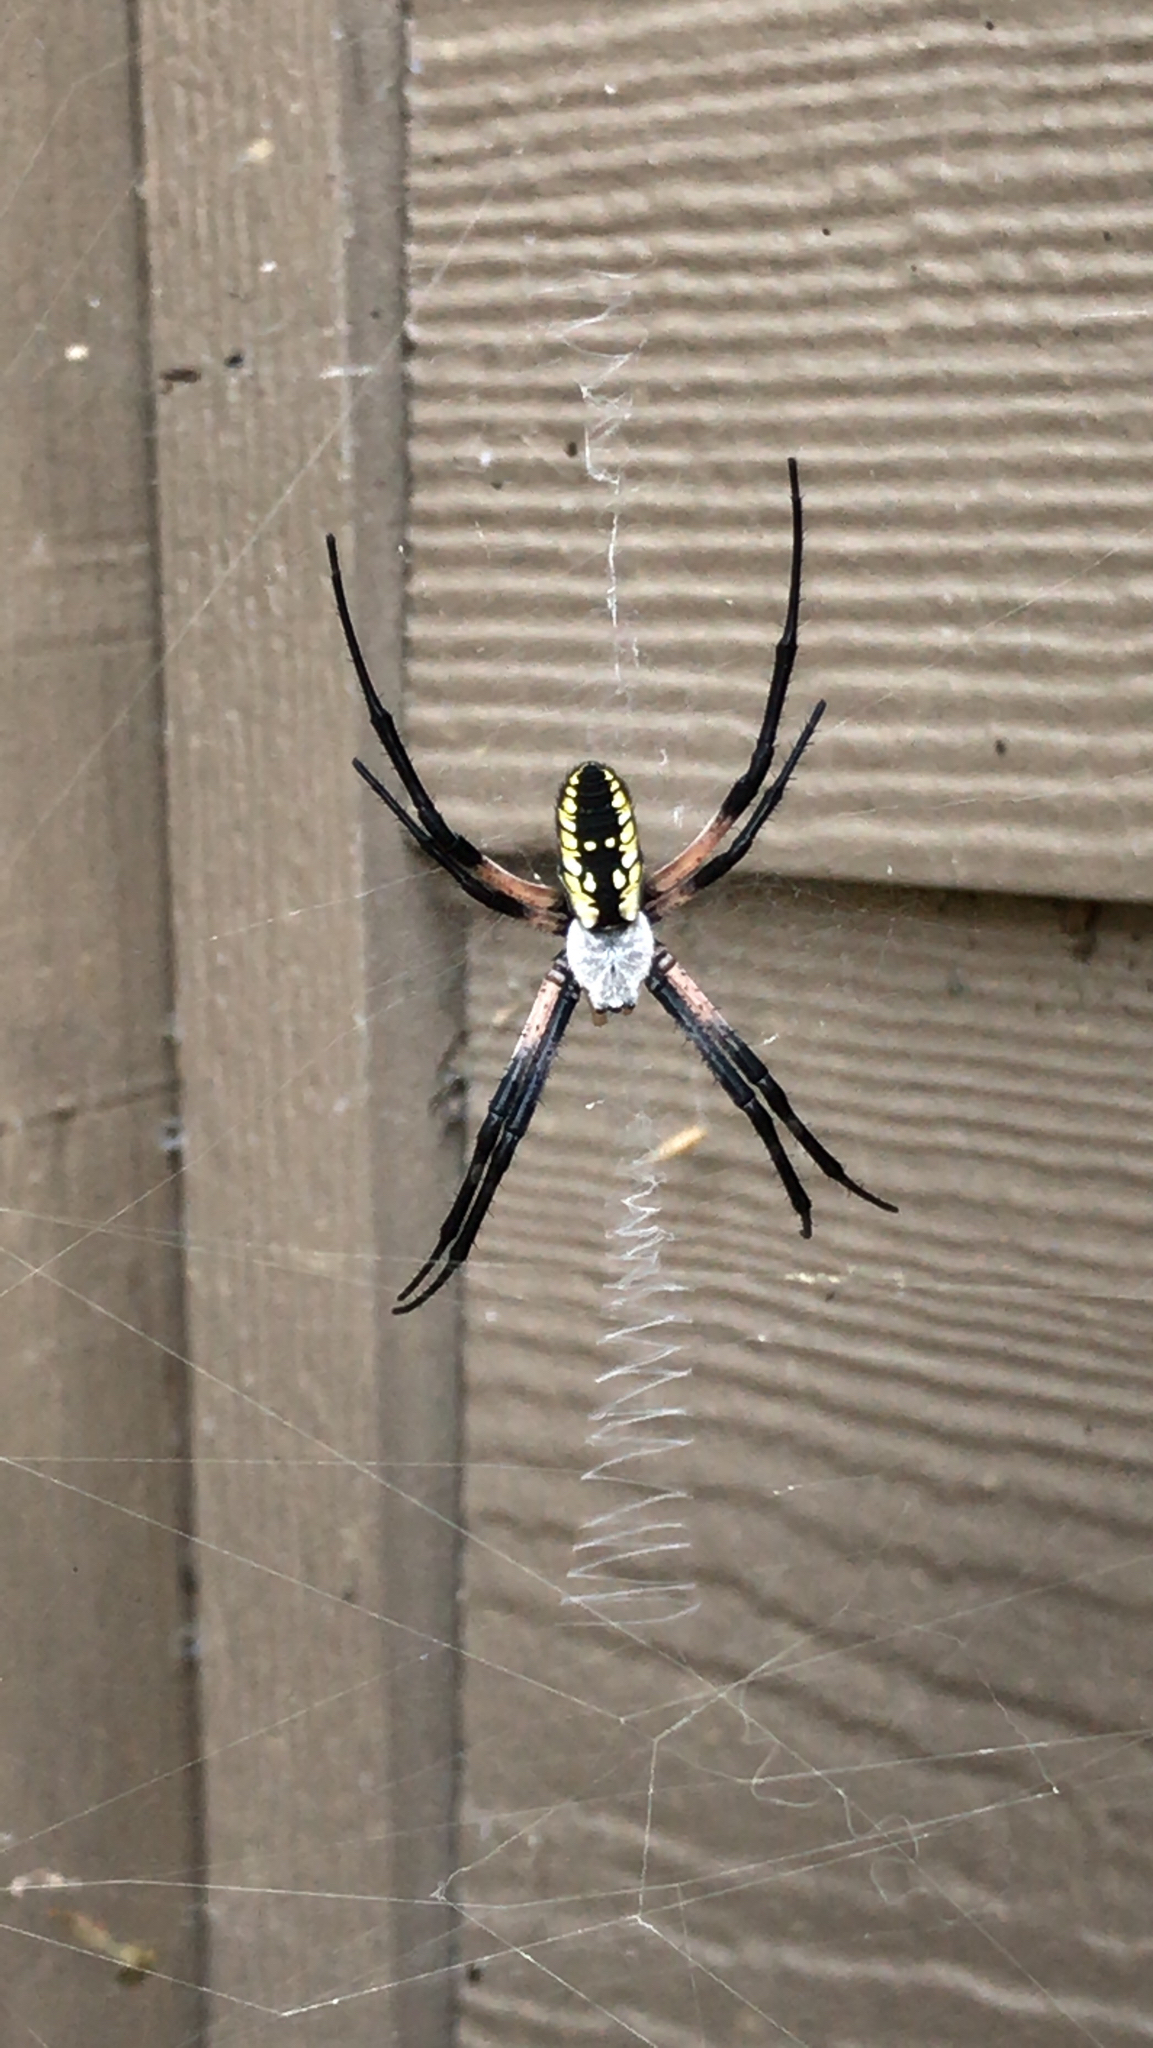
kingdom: Animalia
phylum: Arthropoda
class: Arachnida
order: Araneae
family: Araneidae
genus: Argiope
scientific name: Argiope aurantia
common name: Orb weavers
